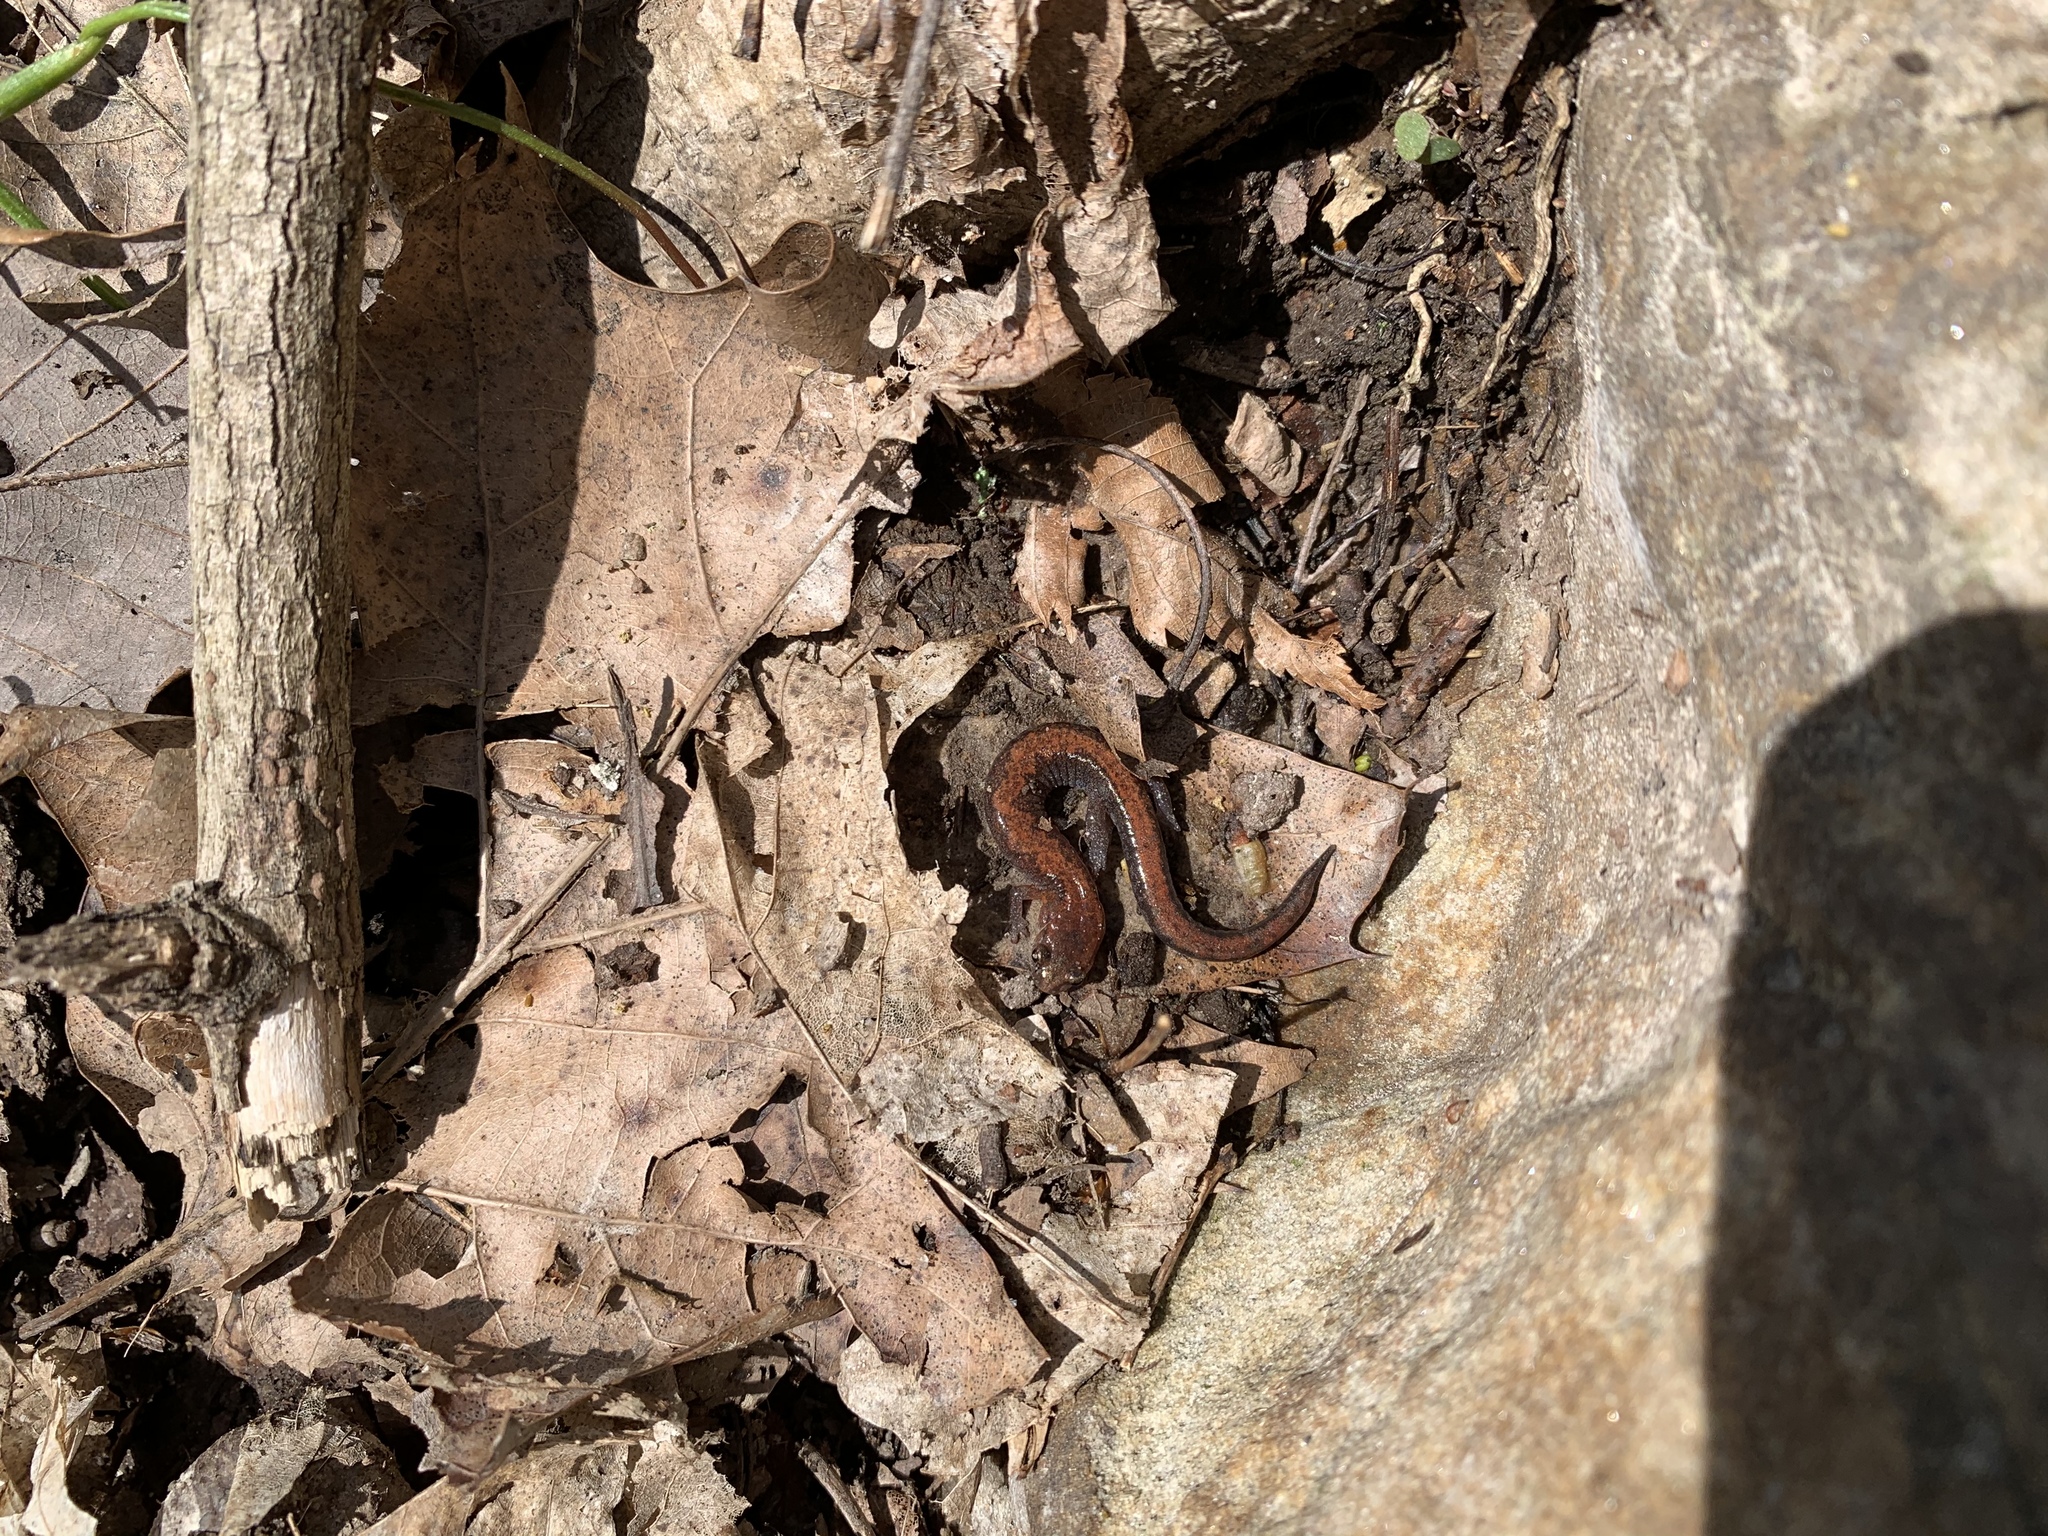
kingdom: Animalia
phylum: Chordata
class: Amphibia
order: Caudata
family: Plethodontidae
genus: Plethodon
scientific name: Plethodon ventralis
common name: Southern zigzag salamander
